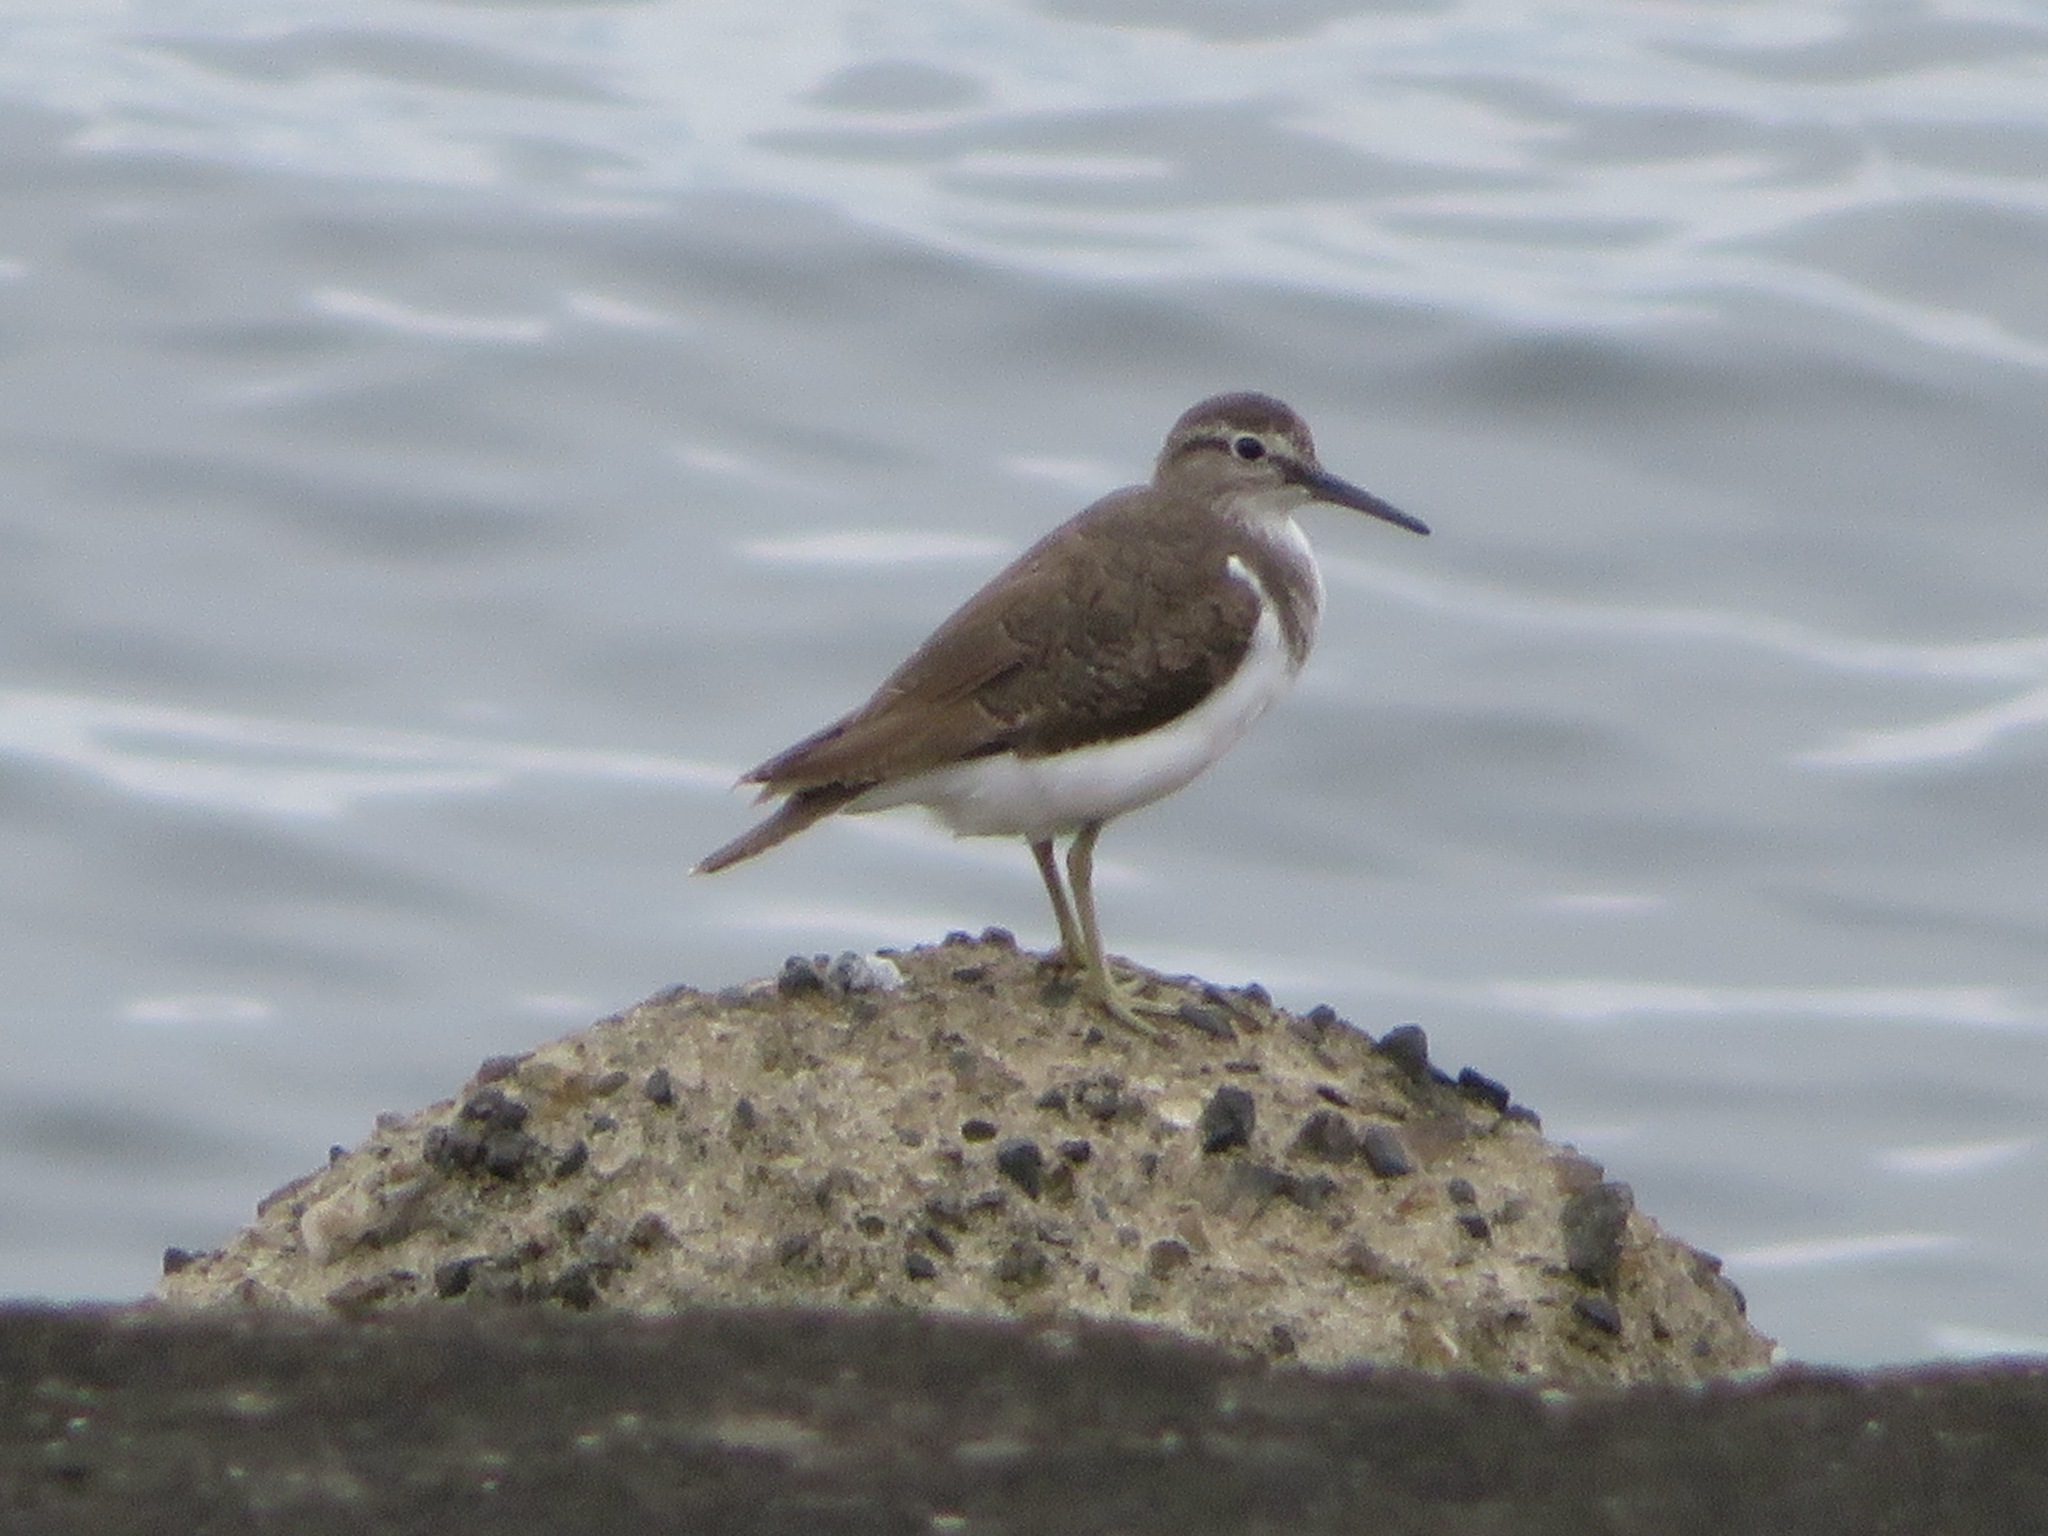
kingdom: Animalia
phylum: Chordata
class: Aves
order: Charadriiformes
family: Scolopacidae
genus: Actitis
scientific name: Actitis hypoleucos
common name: Common sandpiper
